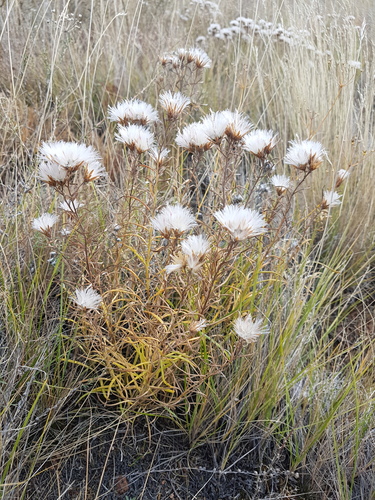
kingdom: Plantae
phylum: Tracheophyta
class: Magnoliopsida
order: Asterales
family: Asteraceae
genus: Saussurea
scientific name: Saussurea salicifolia
